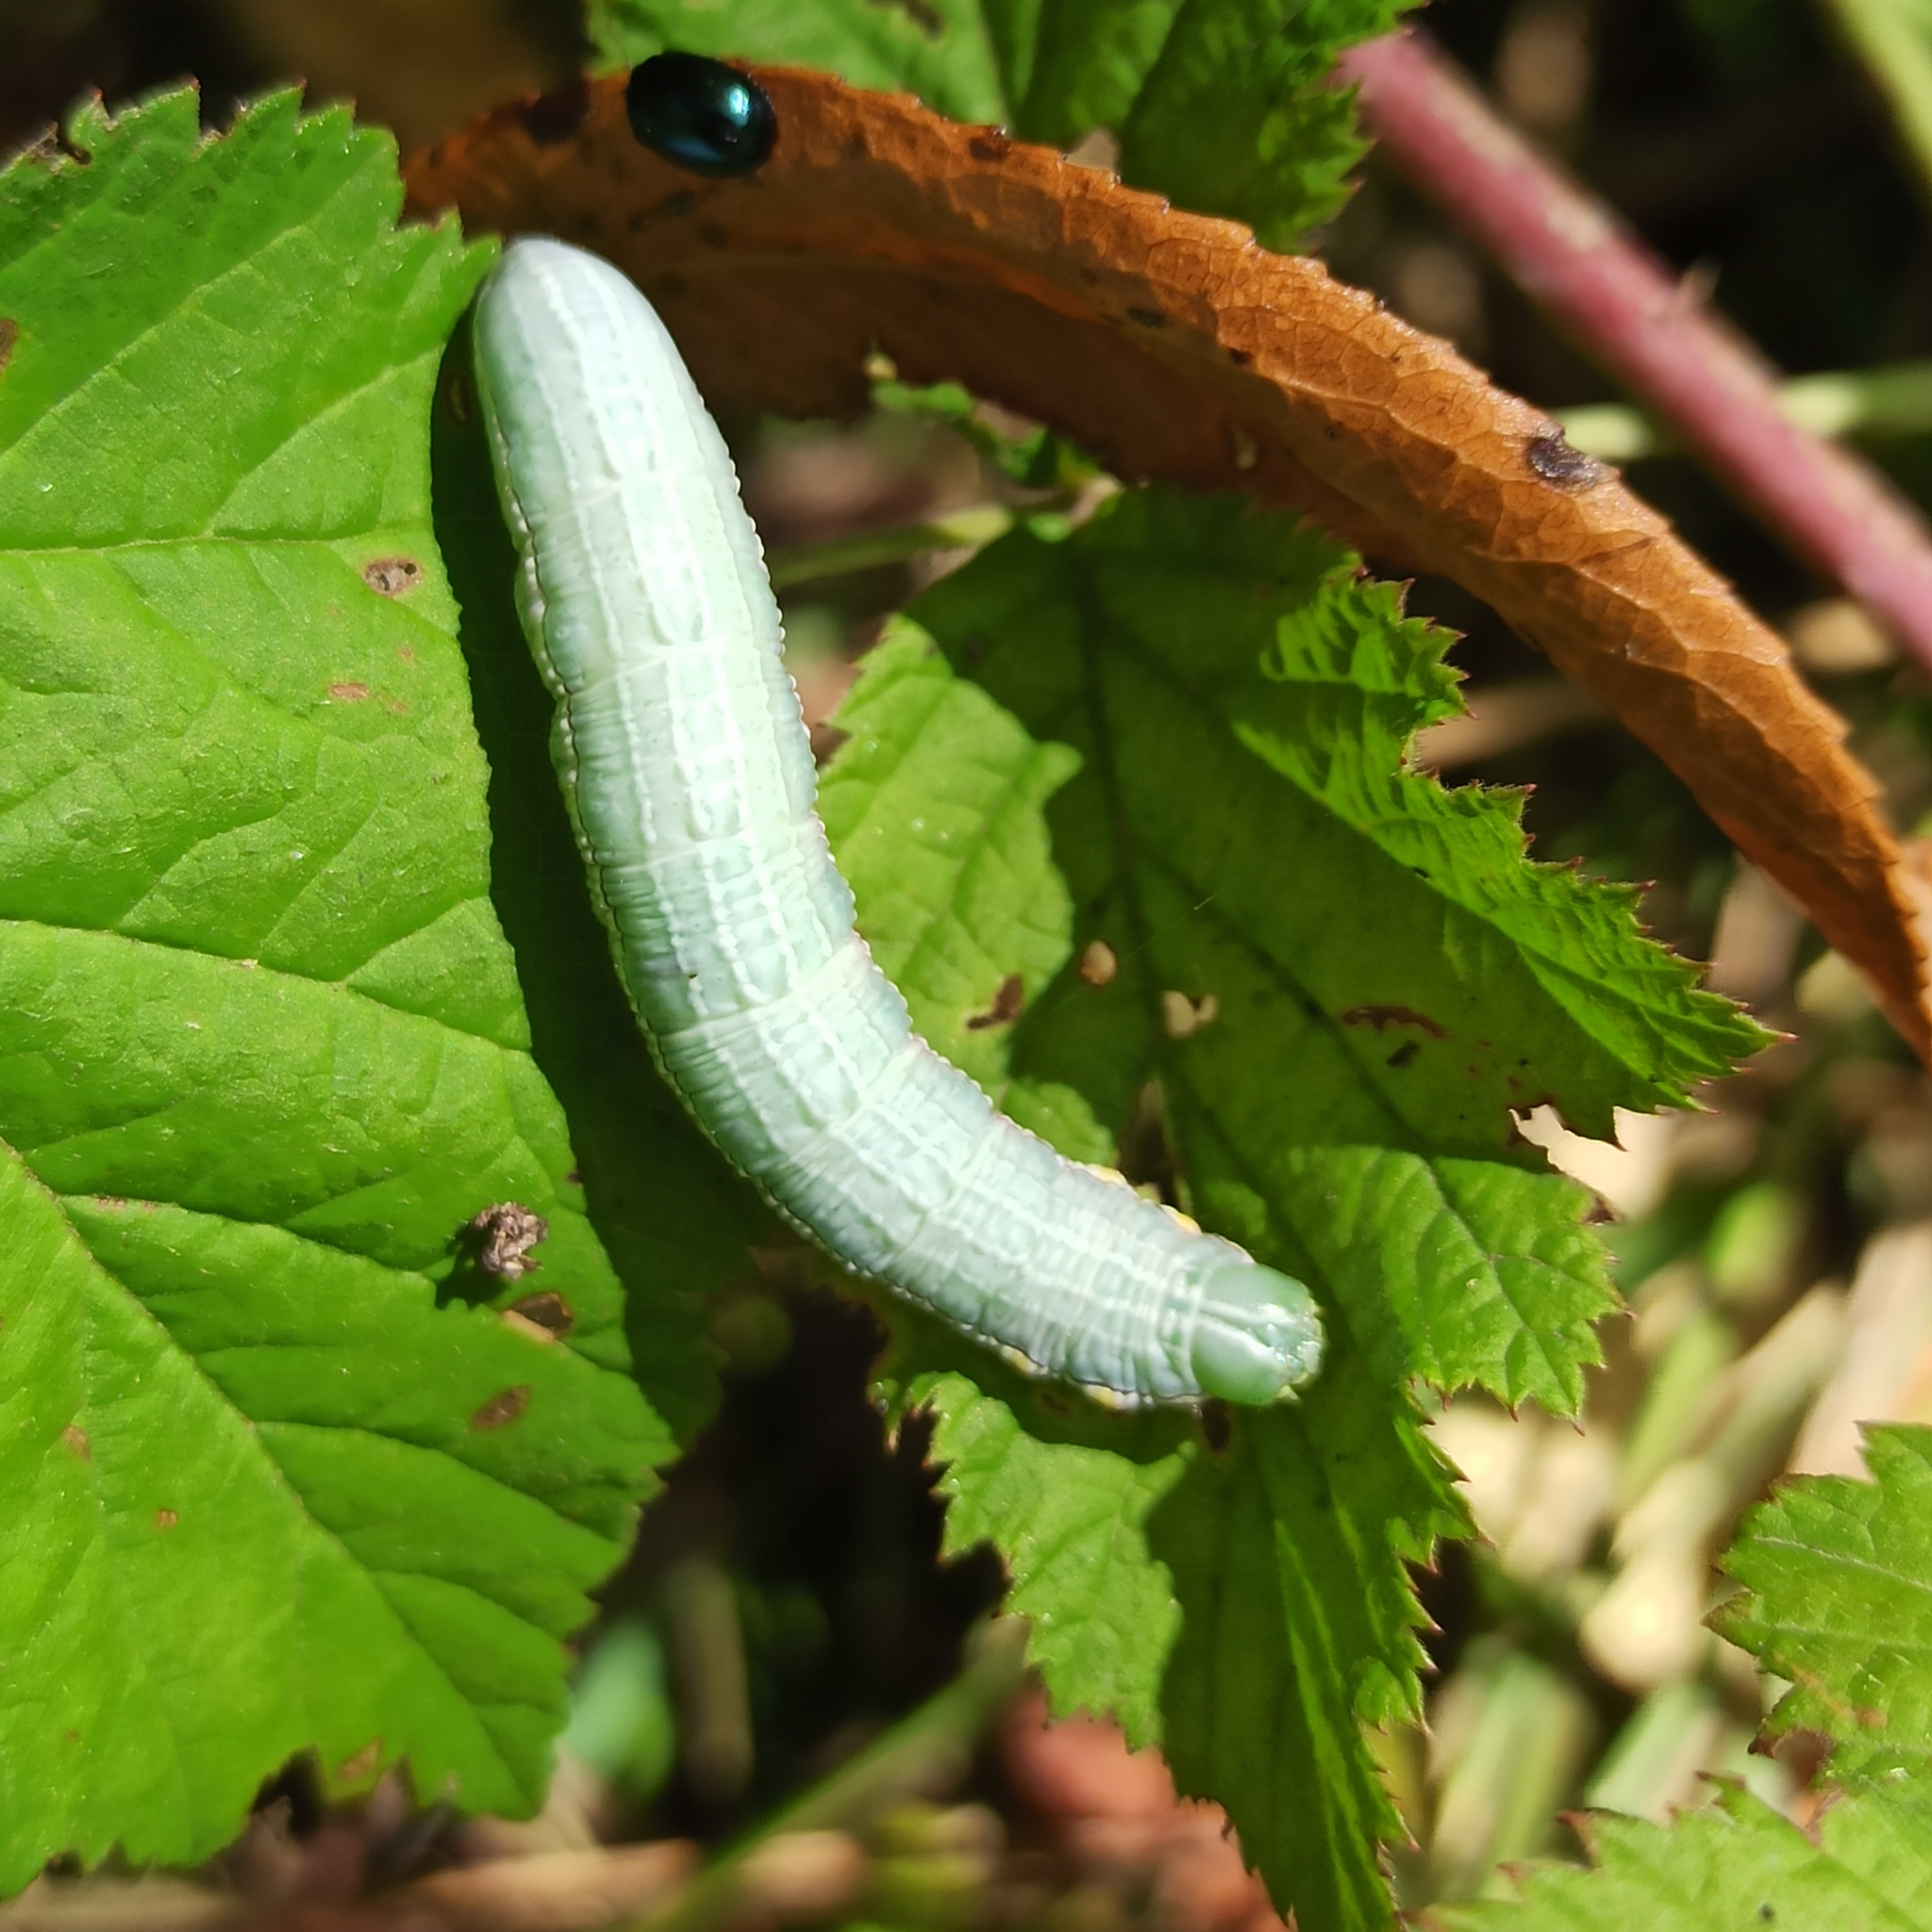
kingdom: Animalia
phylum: Arthropoda
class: Insecta
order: Lepidoptera
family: Notodontidae
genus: Pterostoma
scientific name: Pterostoma palpina
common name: Pale prominent
